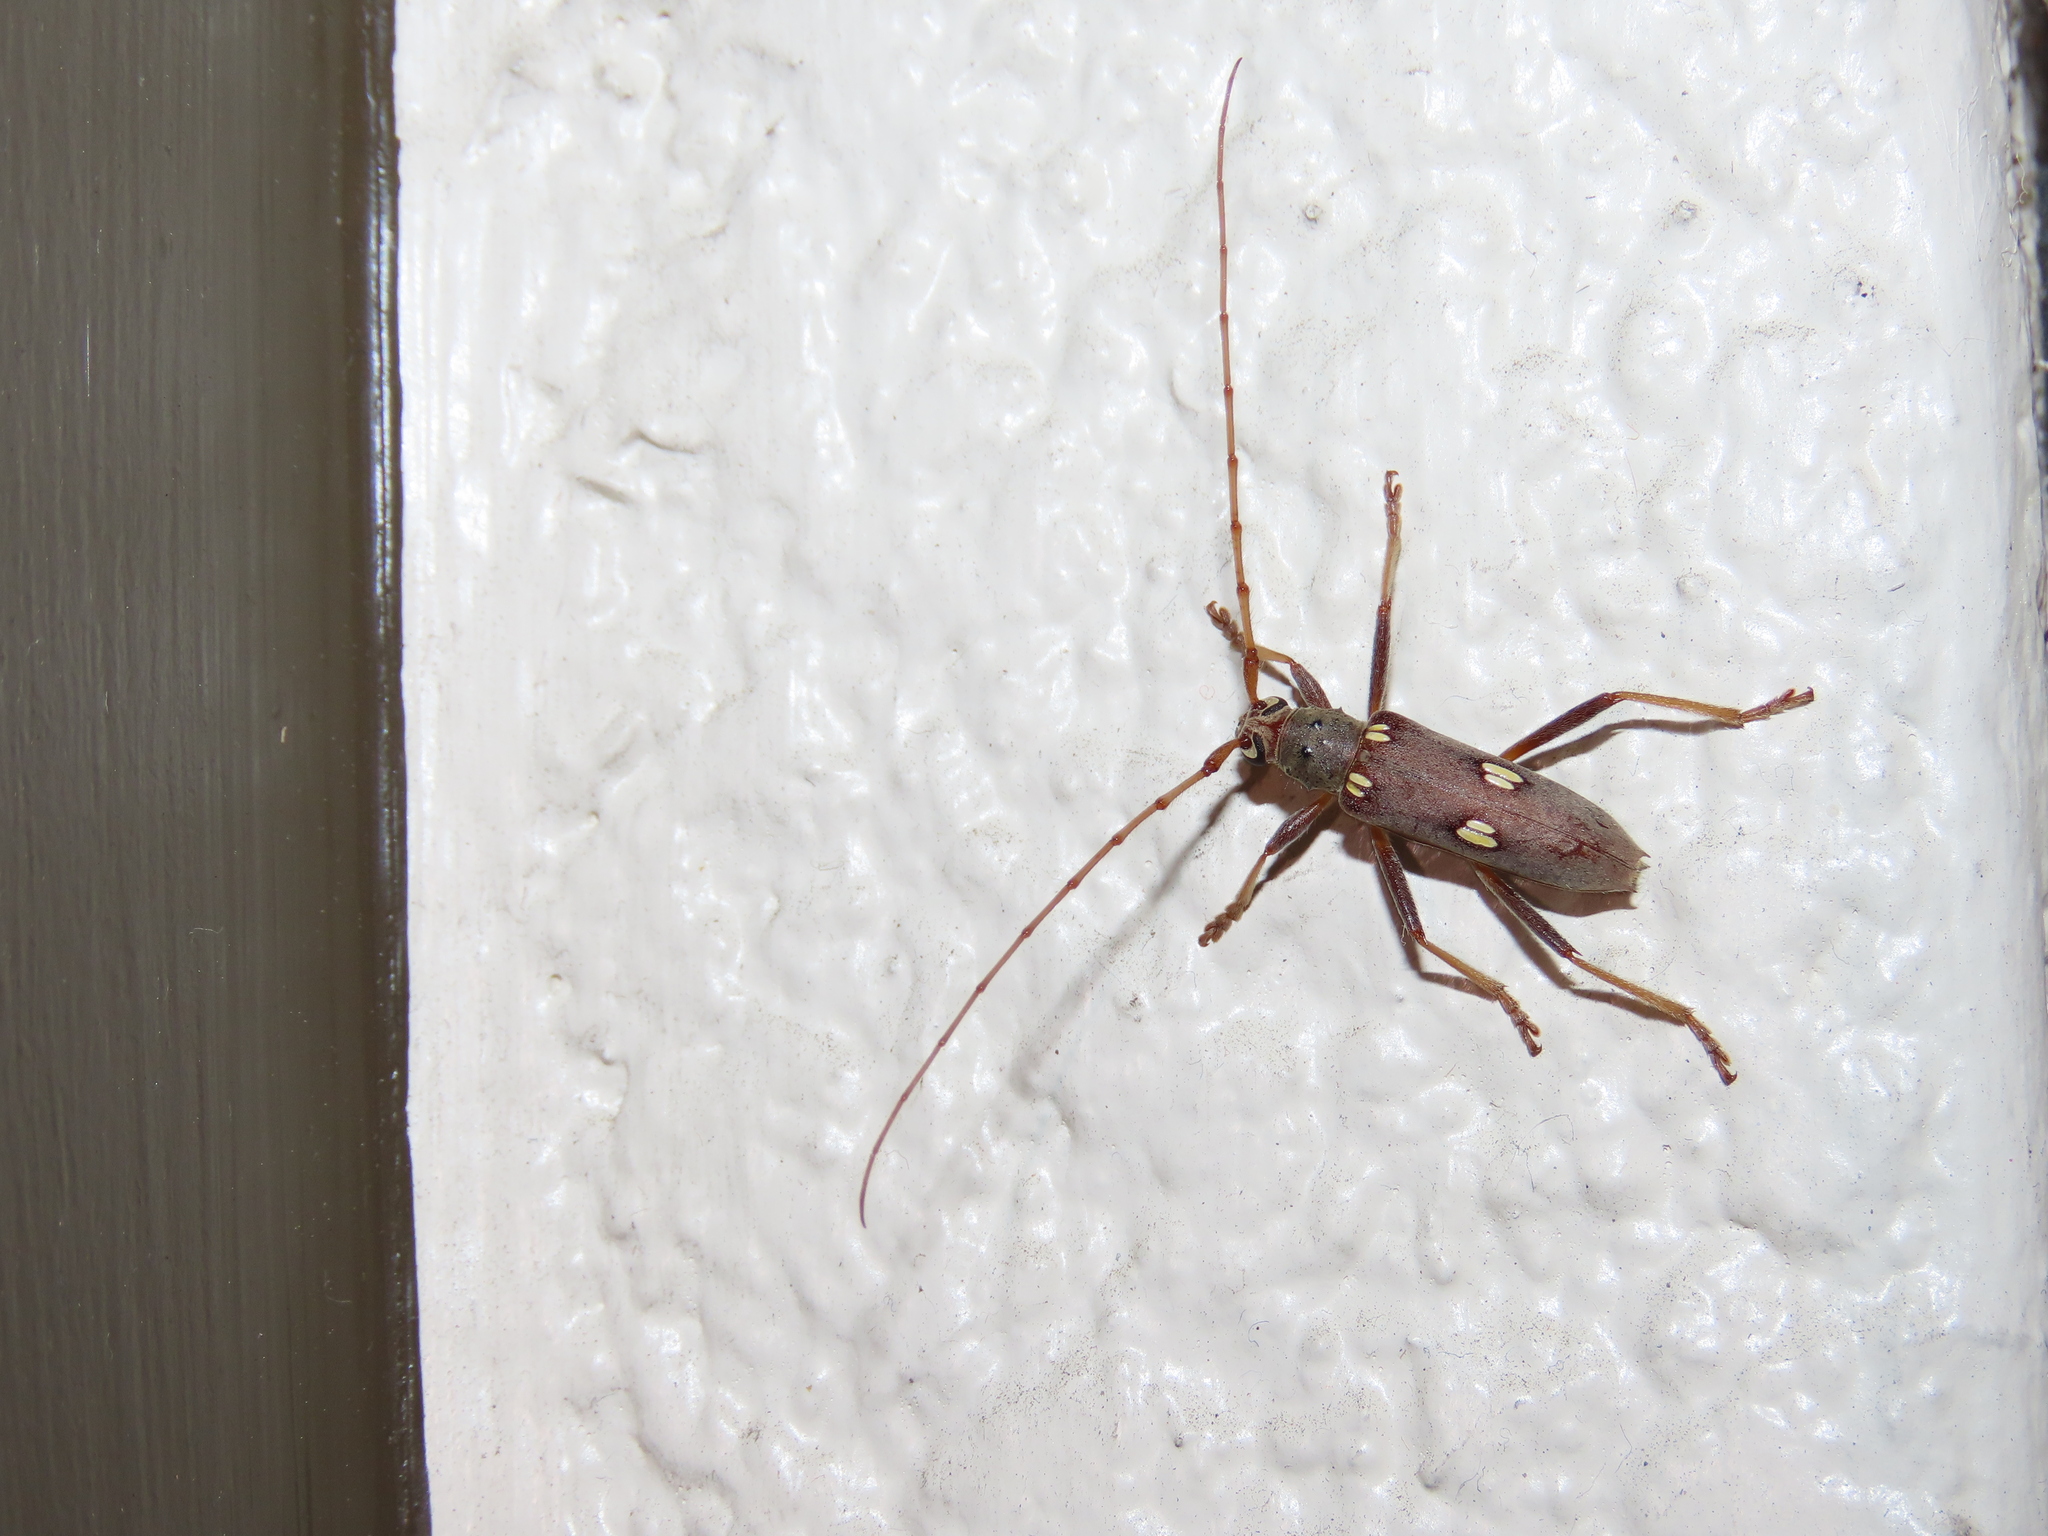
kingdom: Animalia
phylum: Arthropoda
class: Insecta
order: Coleoptera
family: Cerambycidae
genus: Eburia
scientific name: Eburia distincta
